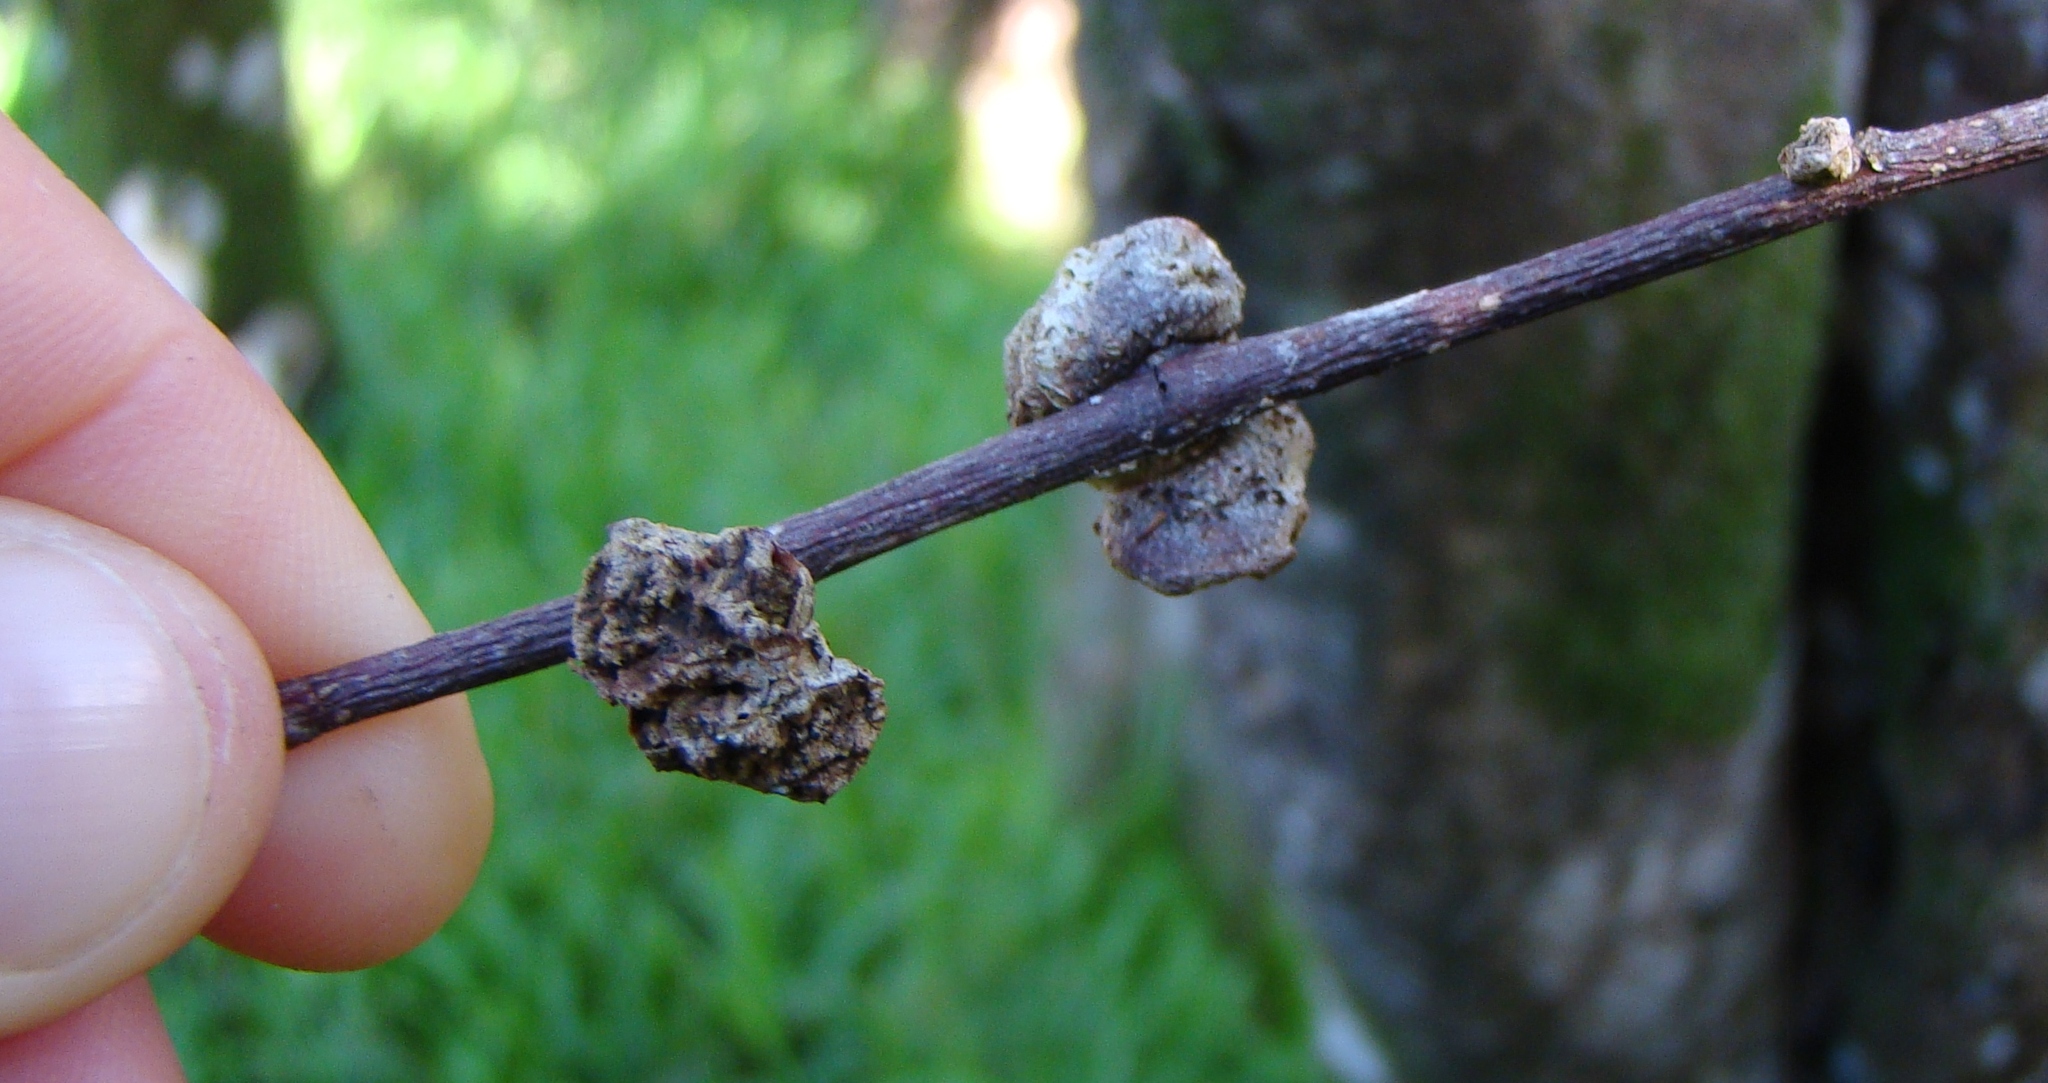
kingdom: Animalia
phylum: Arthropoda
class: Arachnida
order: Trombidiformes
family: Eriophyidae
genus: Eriophyes
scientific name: Eriophyes hoheriae
